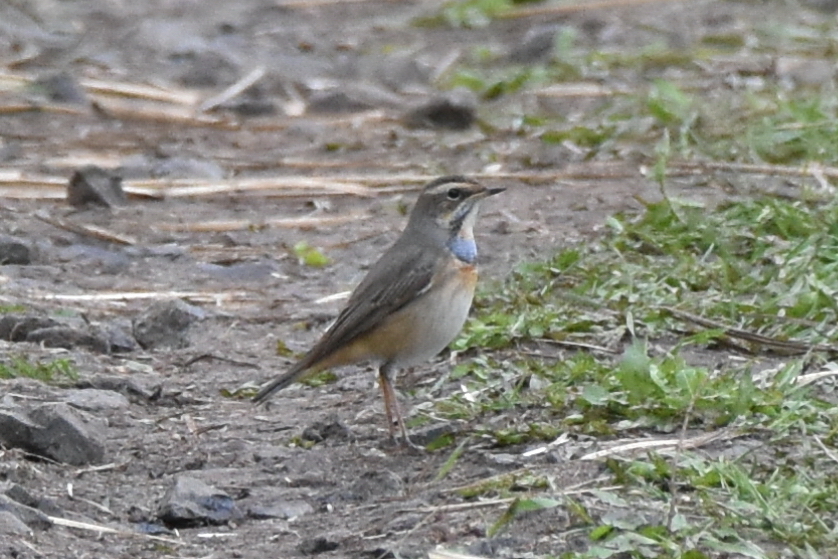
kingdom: Animalia
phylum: Chordata
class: Aves
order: Passeriformes
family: Muscicapidae
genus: Luscinia
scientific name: Luscinia svecica
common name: Bluethroat
